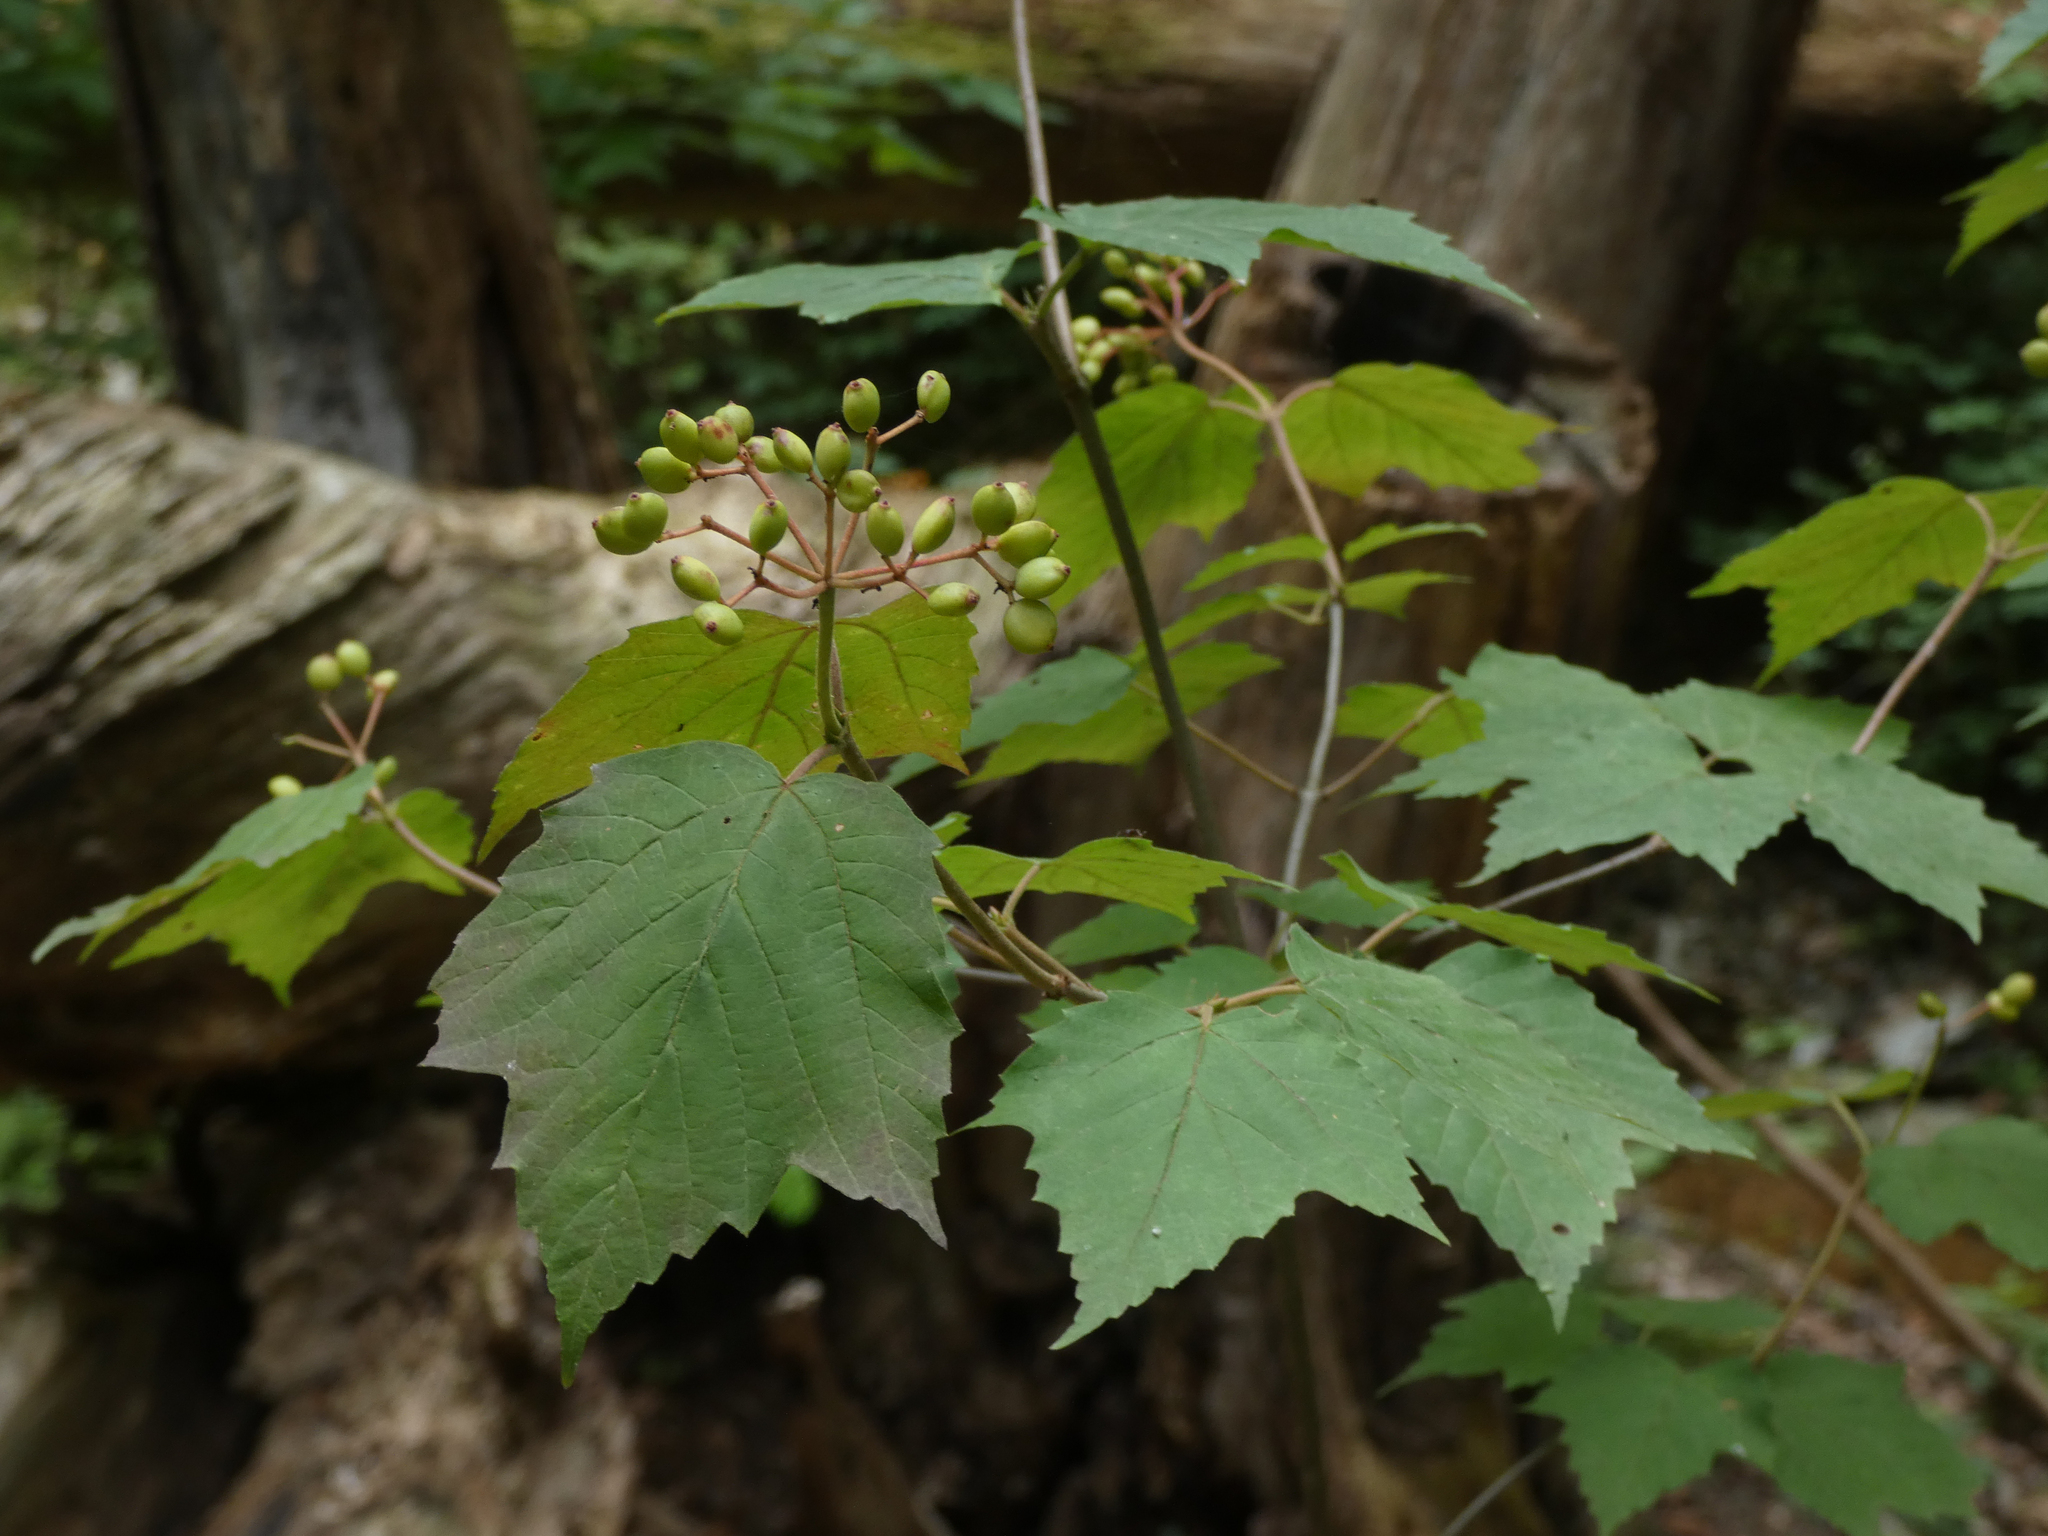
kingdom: Plantae
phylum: Tracheophyta
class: Magnoliopsida
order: Dipsacales
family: Viburnaceae
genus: Viburnum
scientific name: Viburnum acerifolium
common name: Dockmackie
